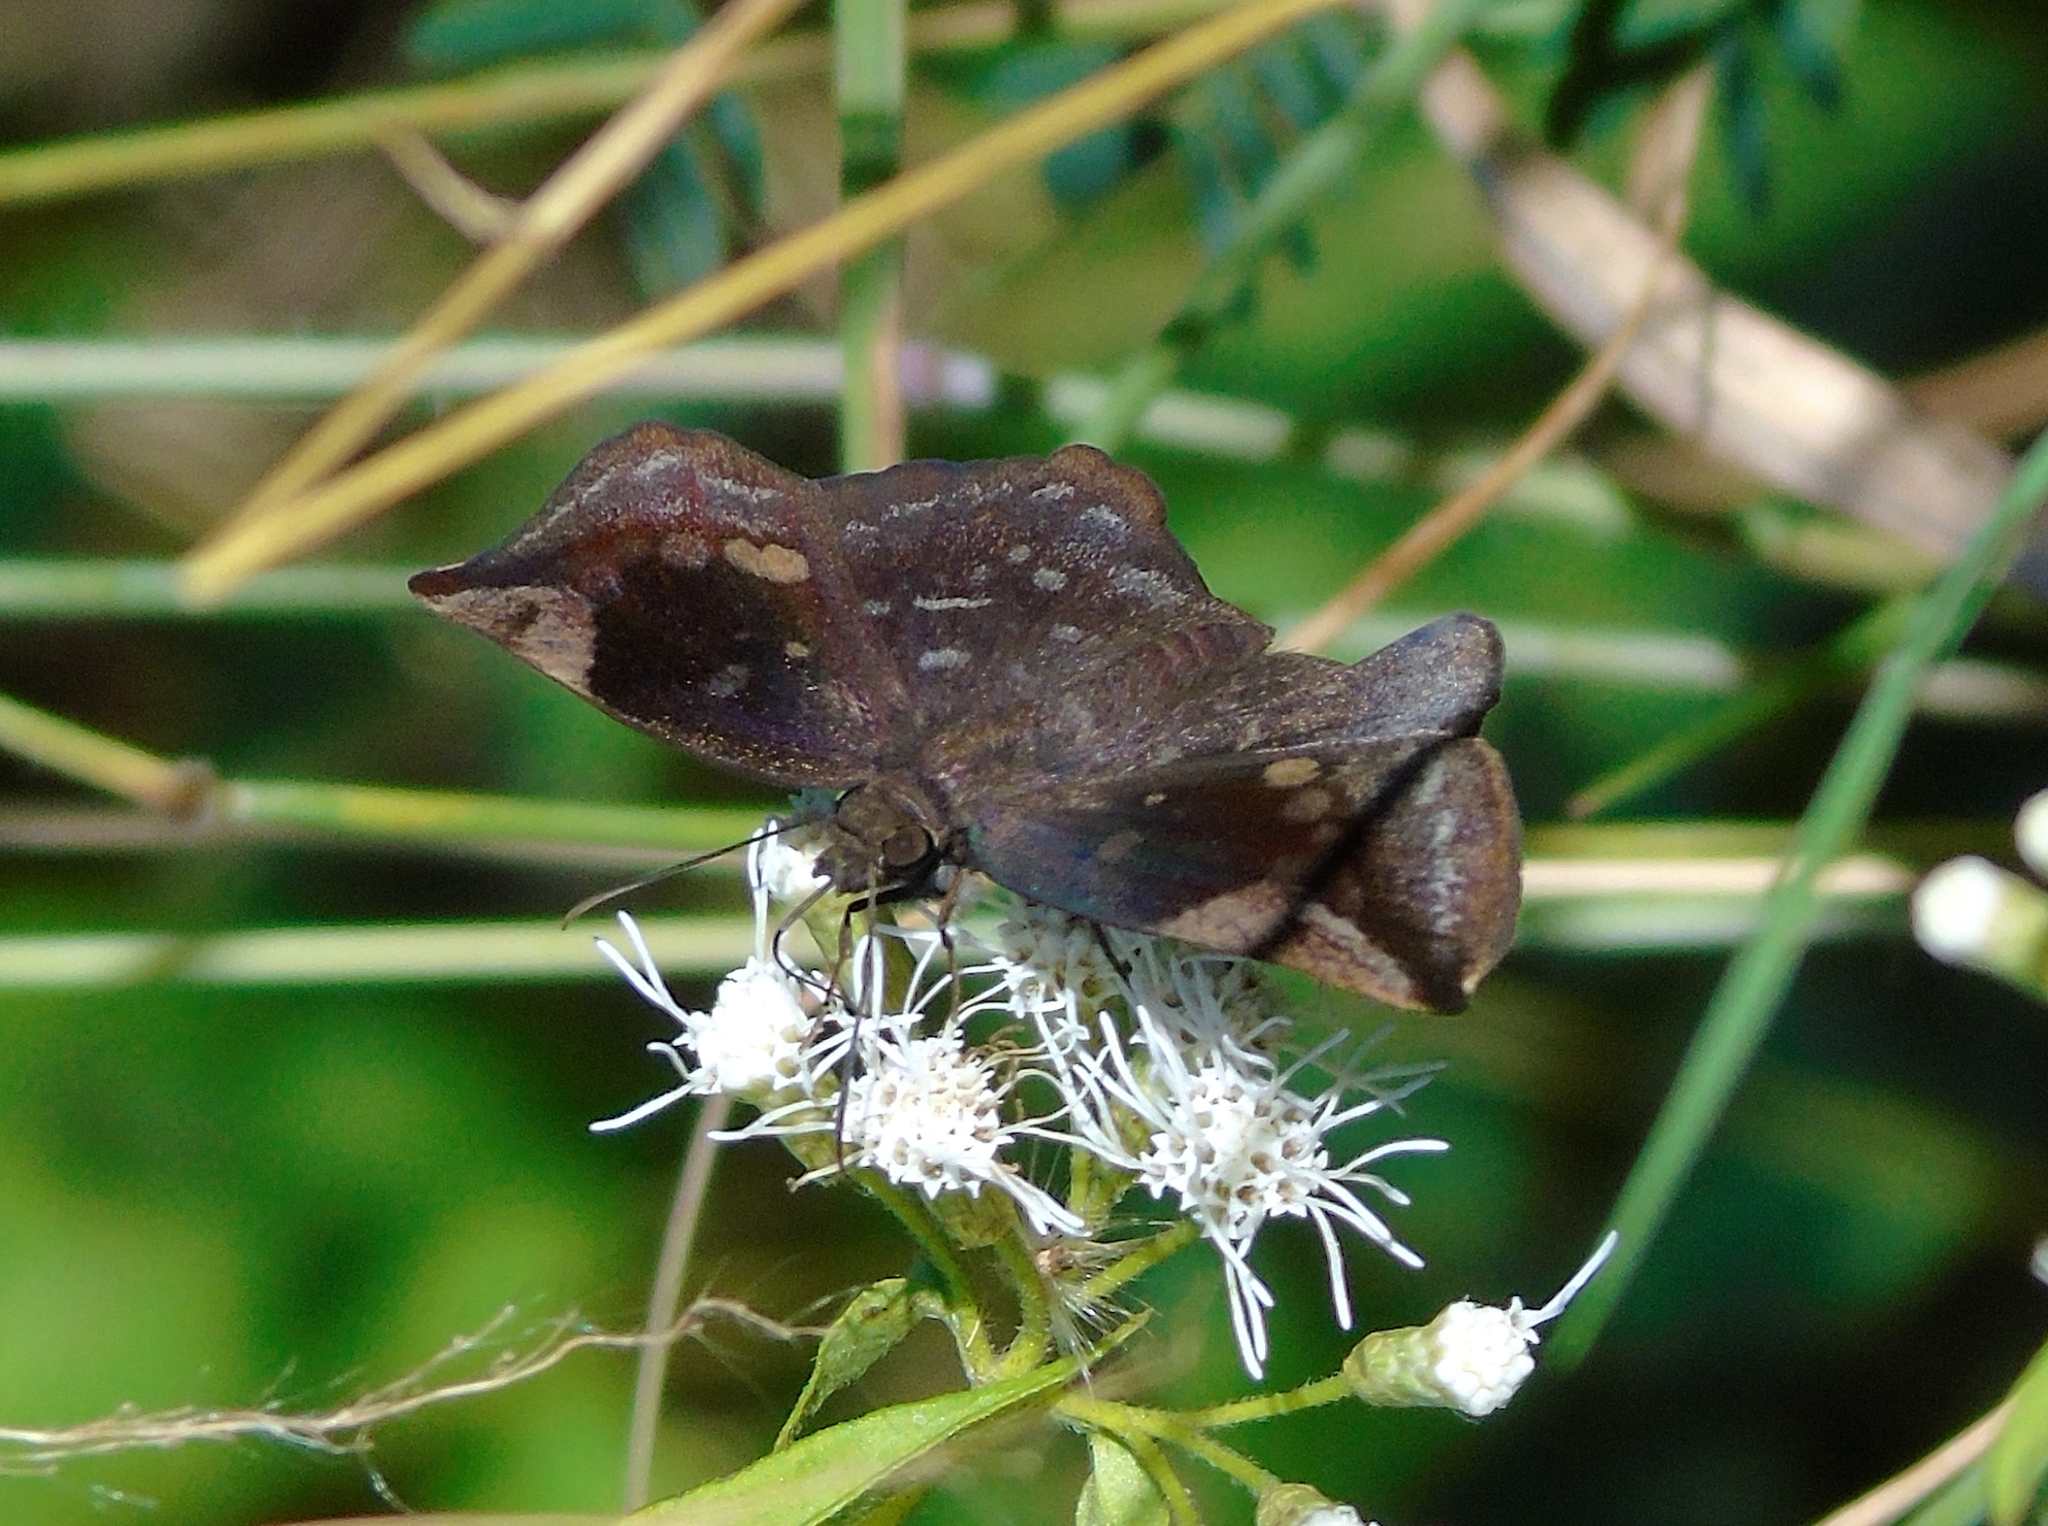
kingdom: Animalia
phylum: Arthropoda
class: Insecta
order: Lepidoptera
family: Hesperiidae
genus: Achlyodes
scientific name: Achlyodes thraso
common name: Sickle-winged skipper
